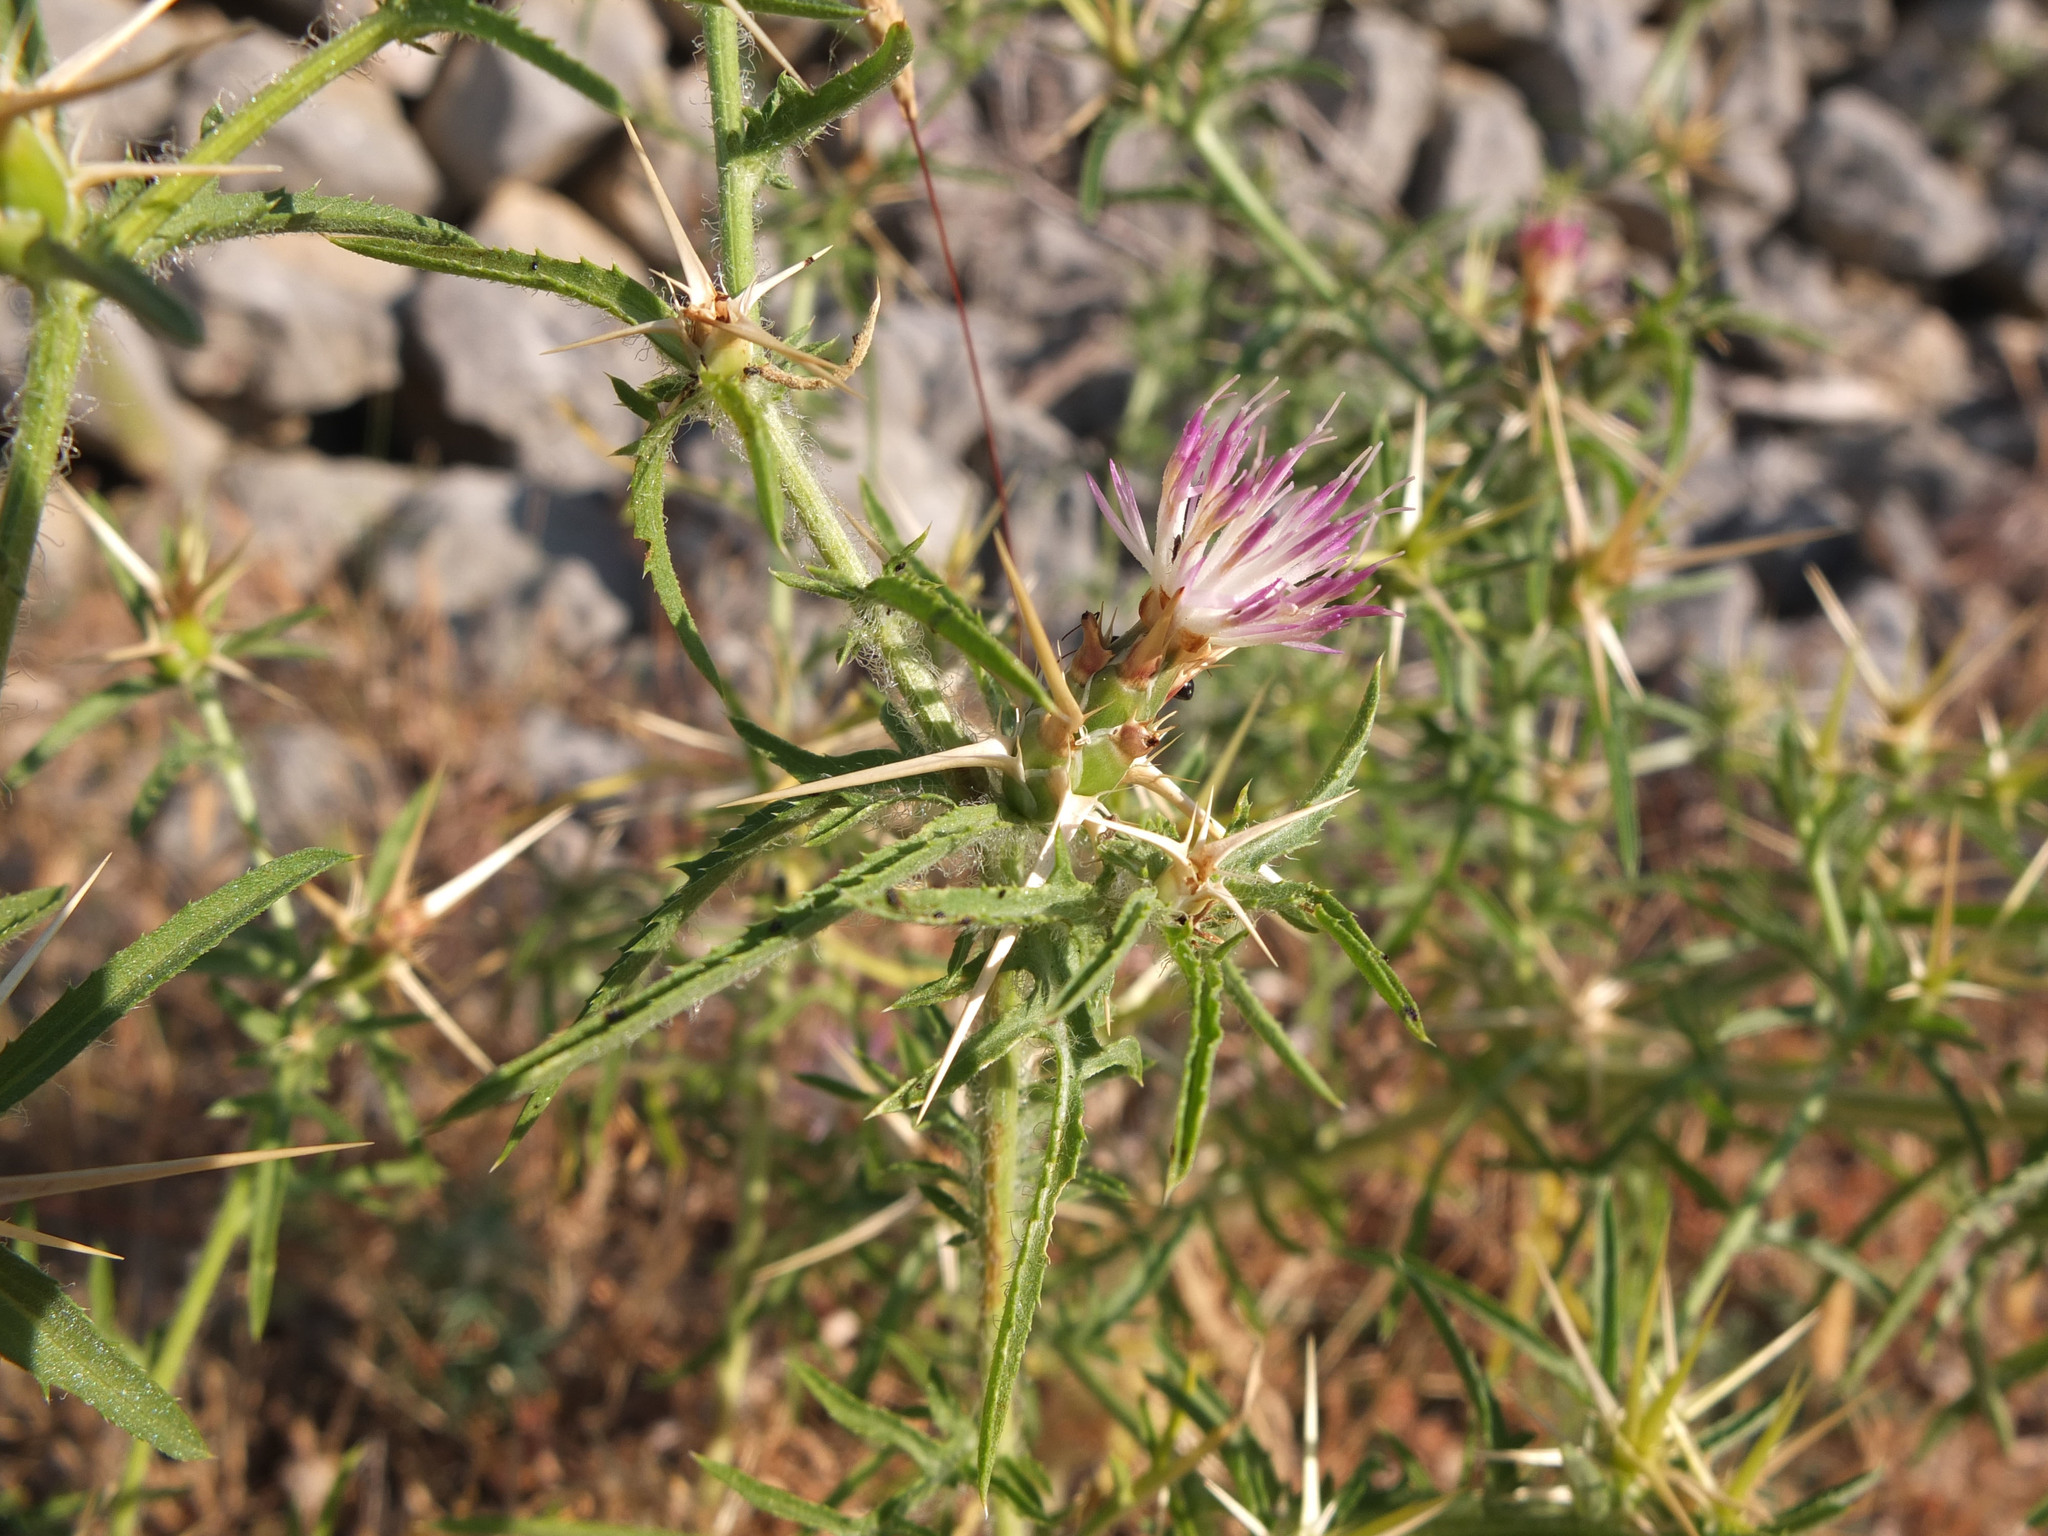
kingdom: Plantae
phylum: Tracheophyta
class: Magnoliopsida
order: Asterales
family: Asteraceae
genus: Centaurea
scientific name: Centaurea calcitrapa
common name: Red star-thistle
